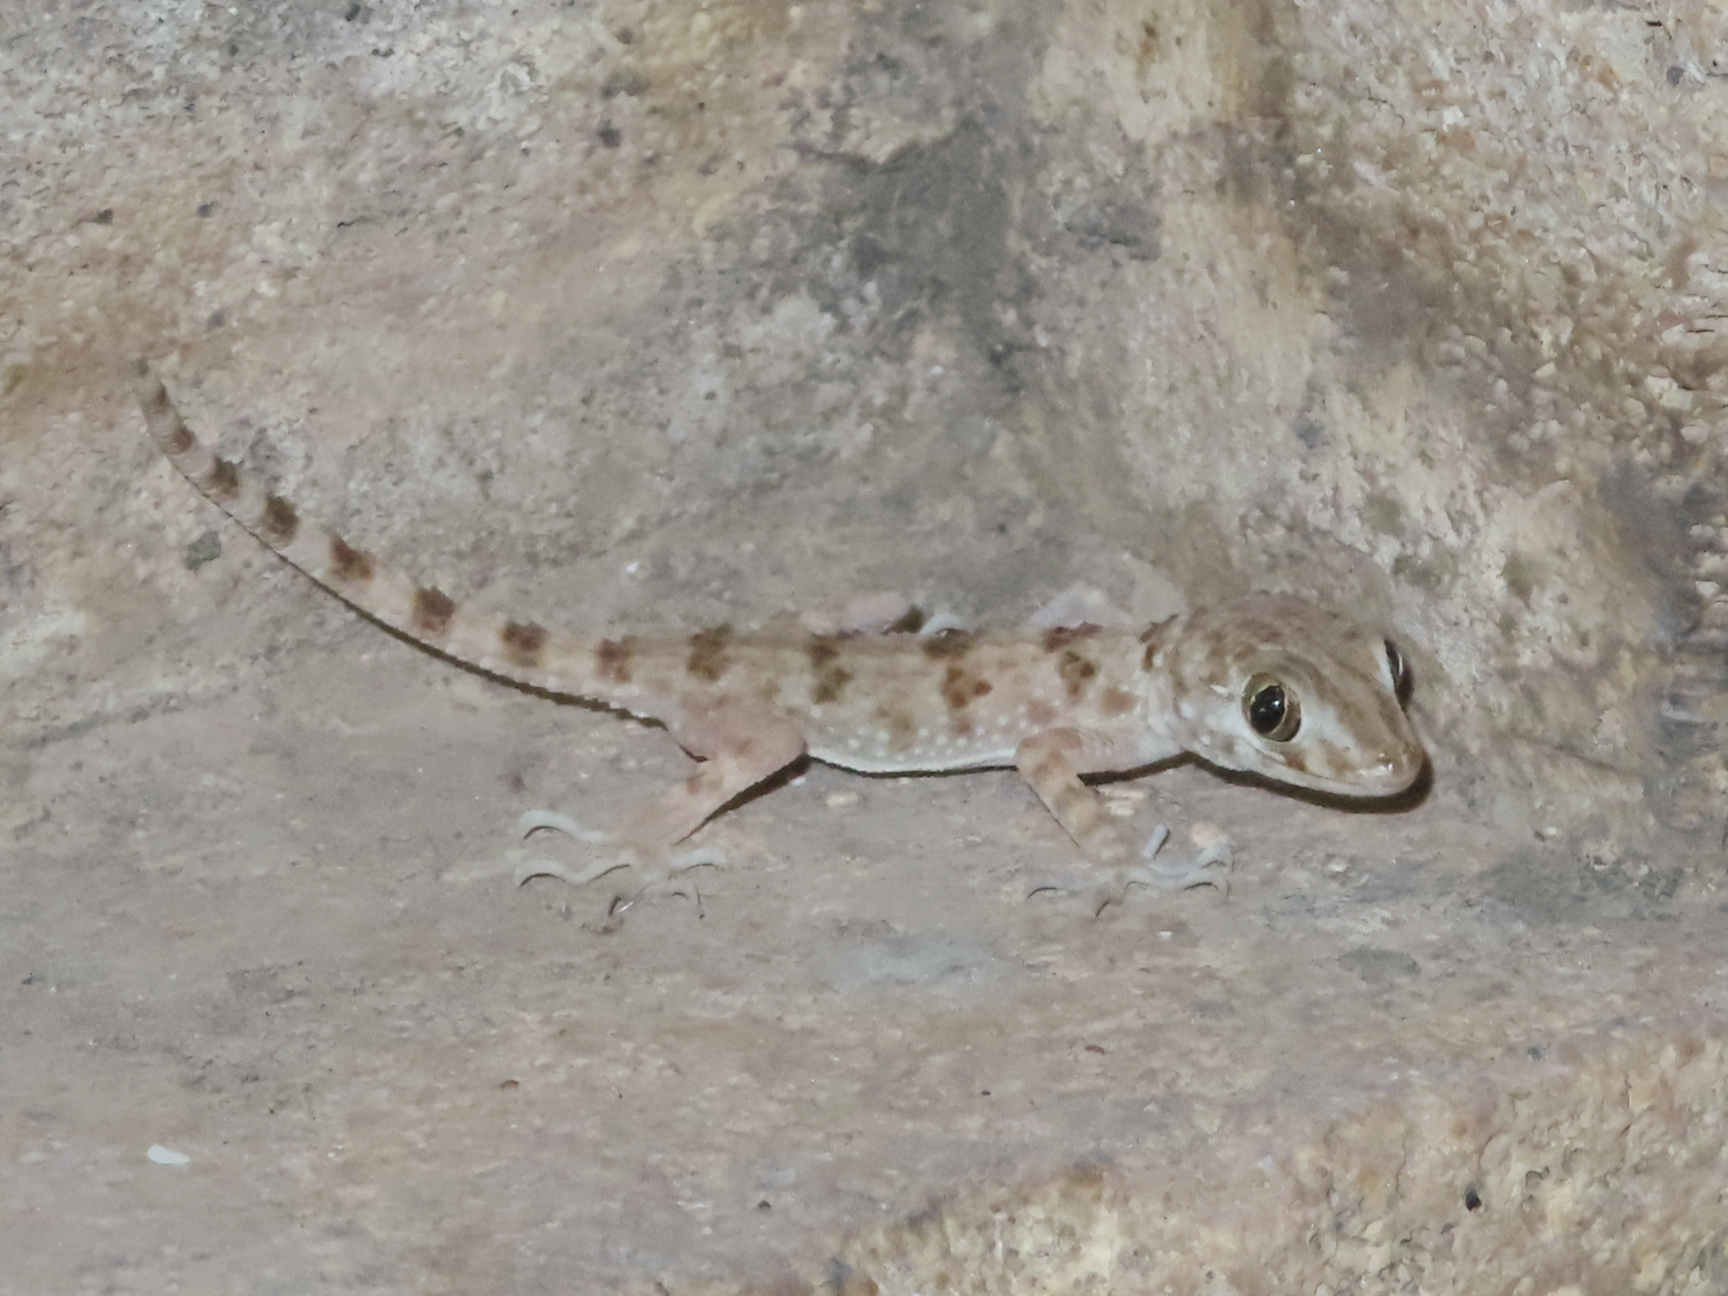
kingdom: Animalia
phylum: Chordata
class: Squamata
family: Gekkonidae
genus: Tenuidactylus
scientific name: Tenuidactylus caspius
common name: Caspian bent-toed gecko
